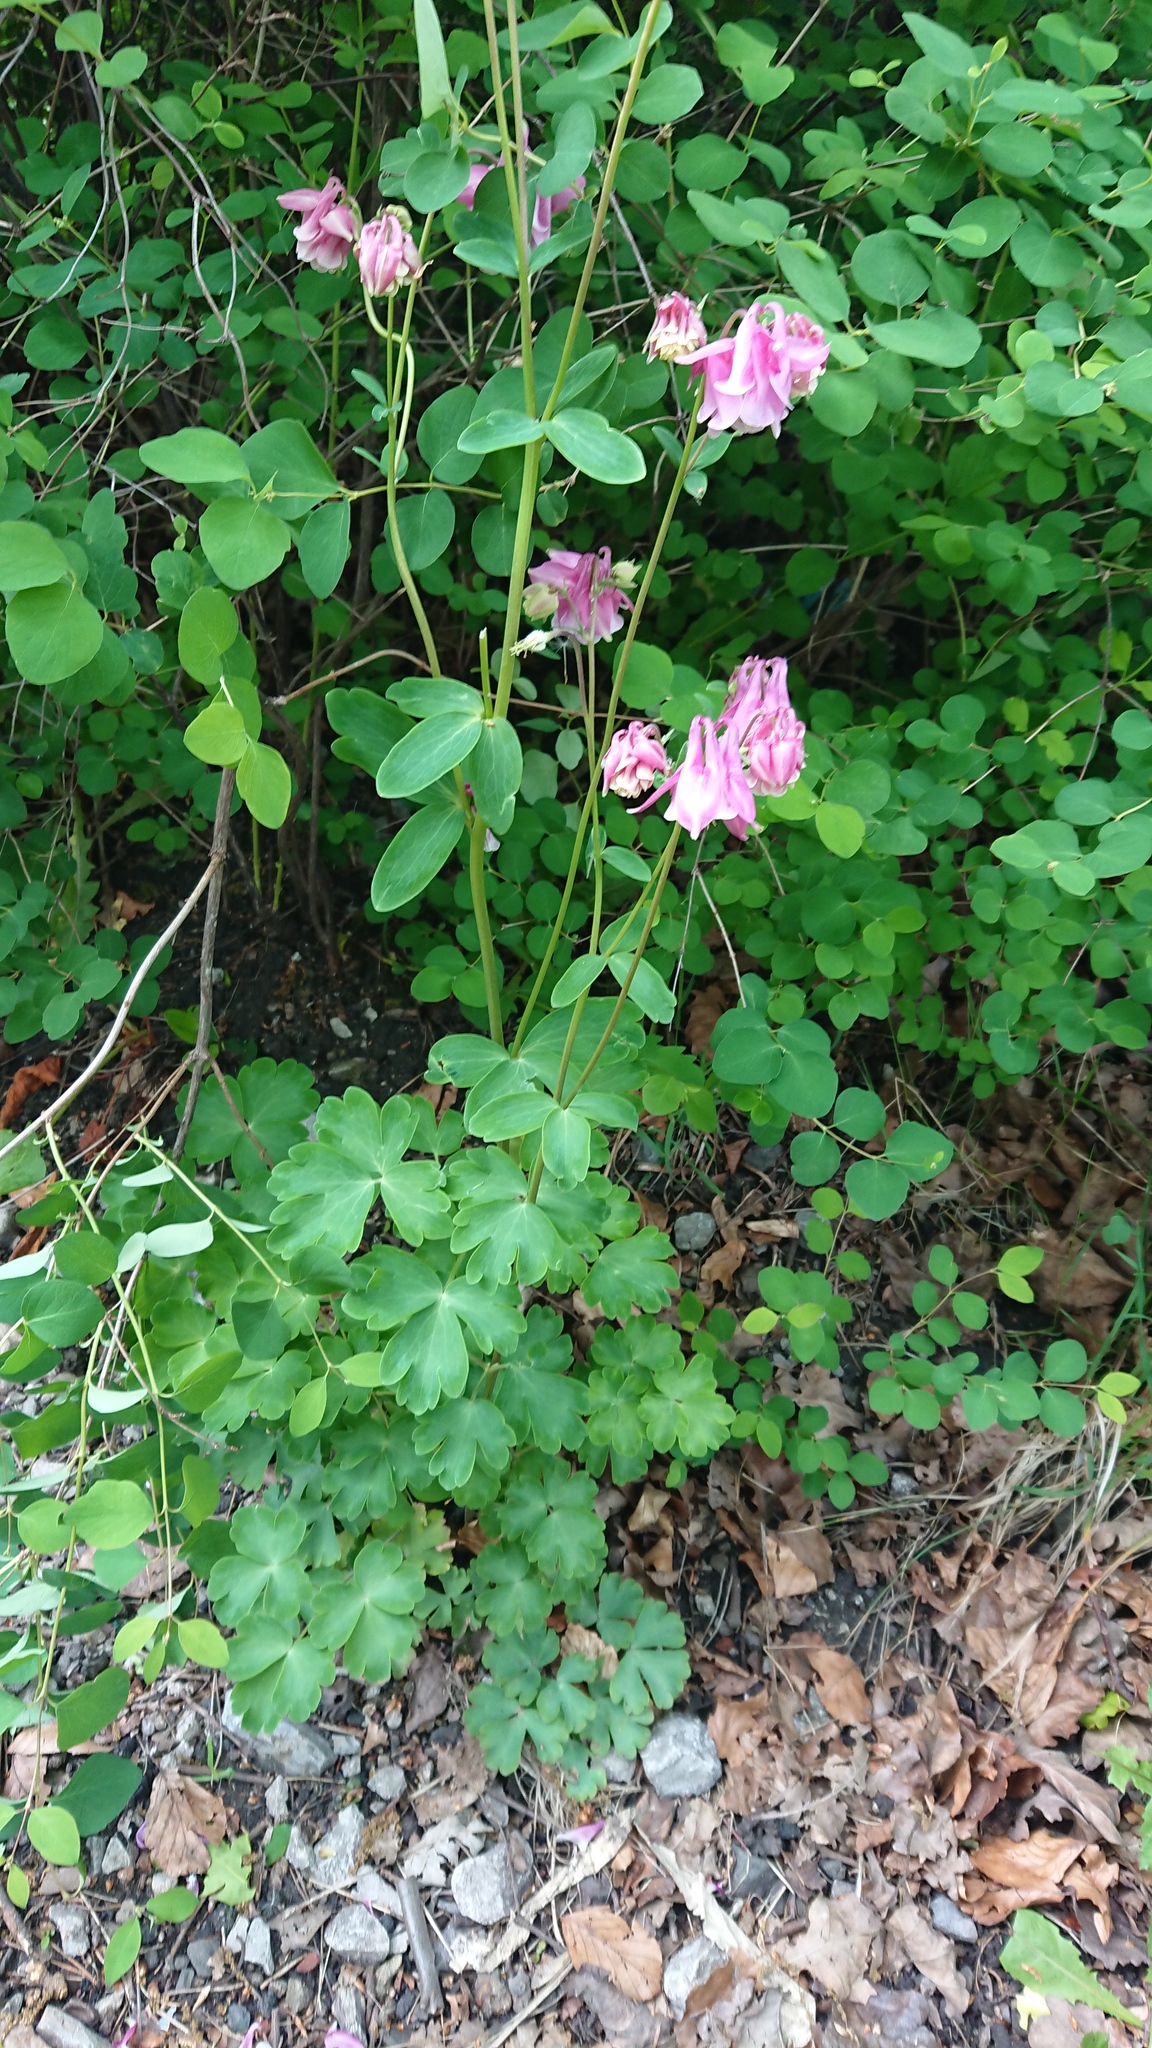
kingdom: Plantae
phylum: Tracheophyta
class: Magnoliopsida
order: Ranunculales
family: Ranunculaceae
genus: Aquilegia
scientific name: Aquilegia vulgaris
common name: Columbine
